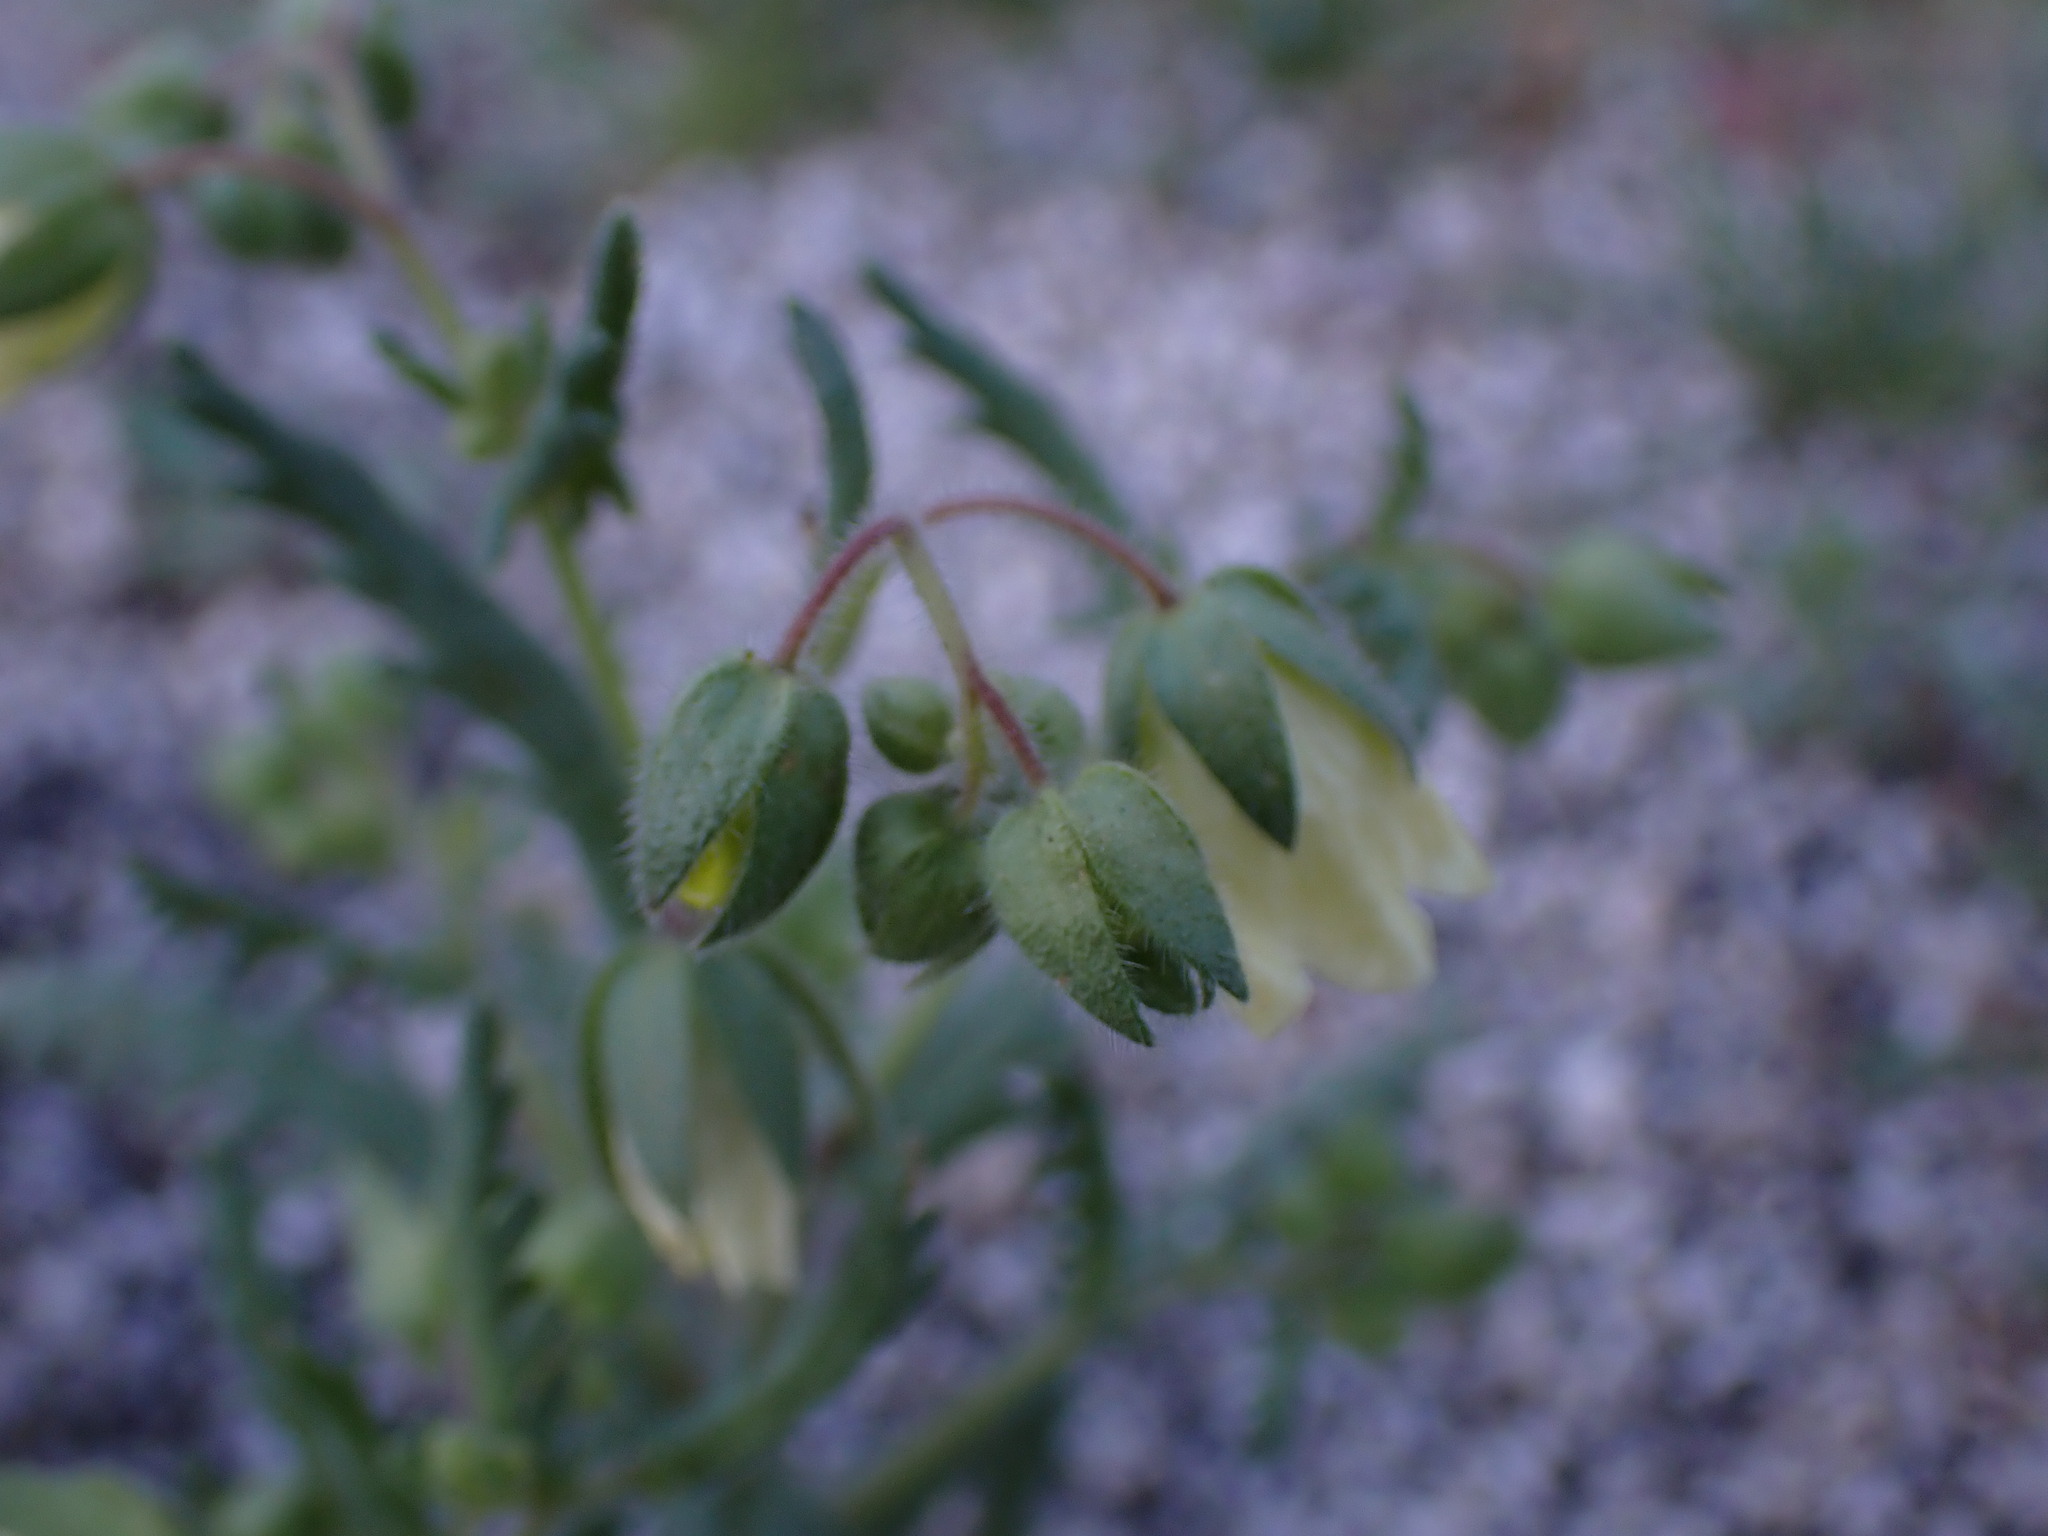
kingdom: Plantae
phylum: Tracheophyta
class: Magnoliopsida
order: Boraginales
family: Hydrophyllaceae
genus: Emmenanthe
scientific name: Emmenanthe penduliflora
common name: Whispering-bells
